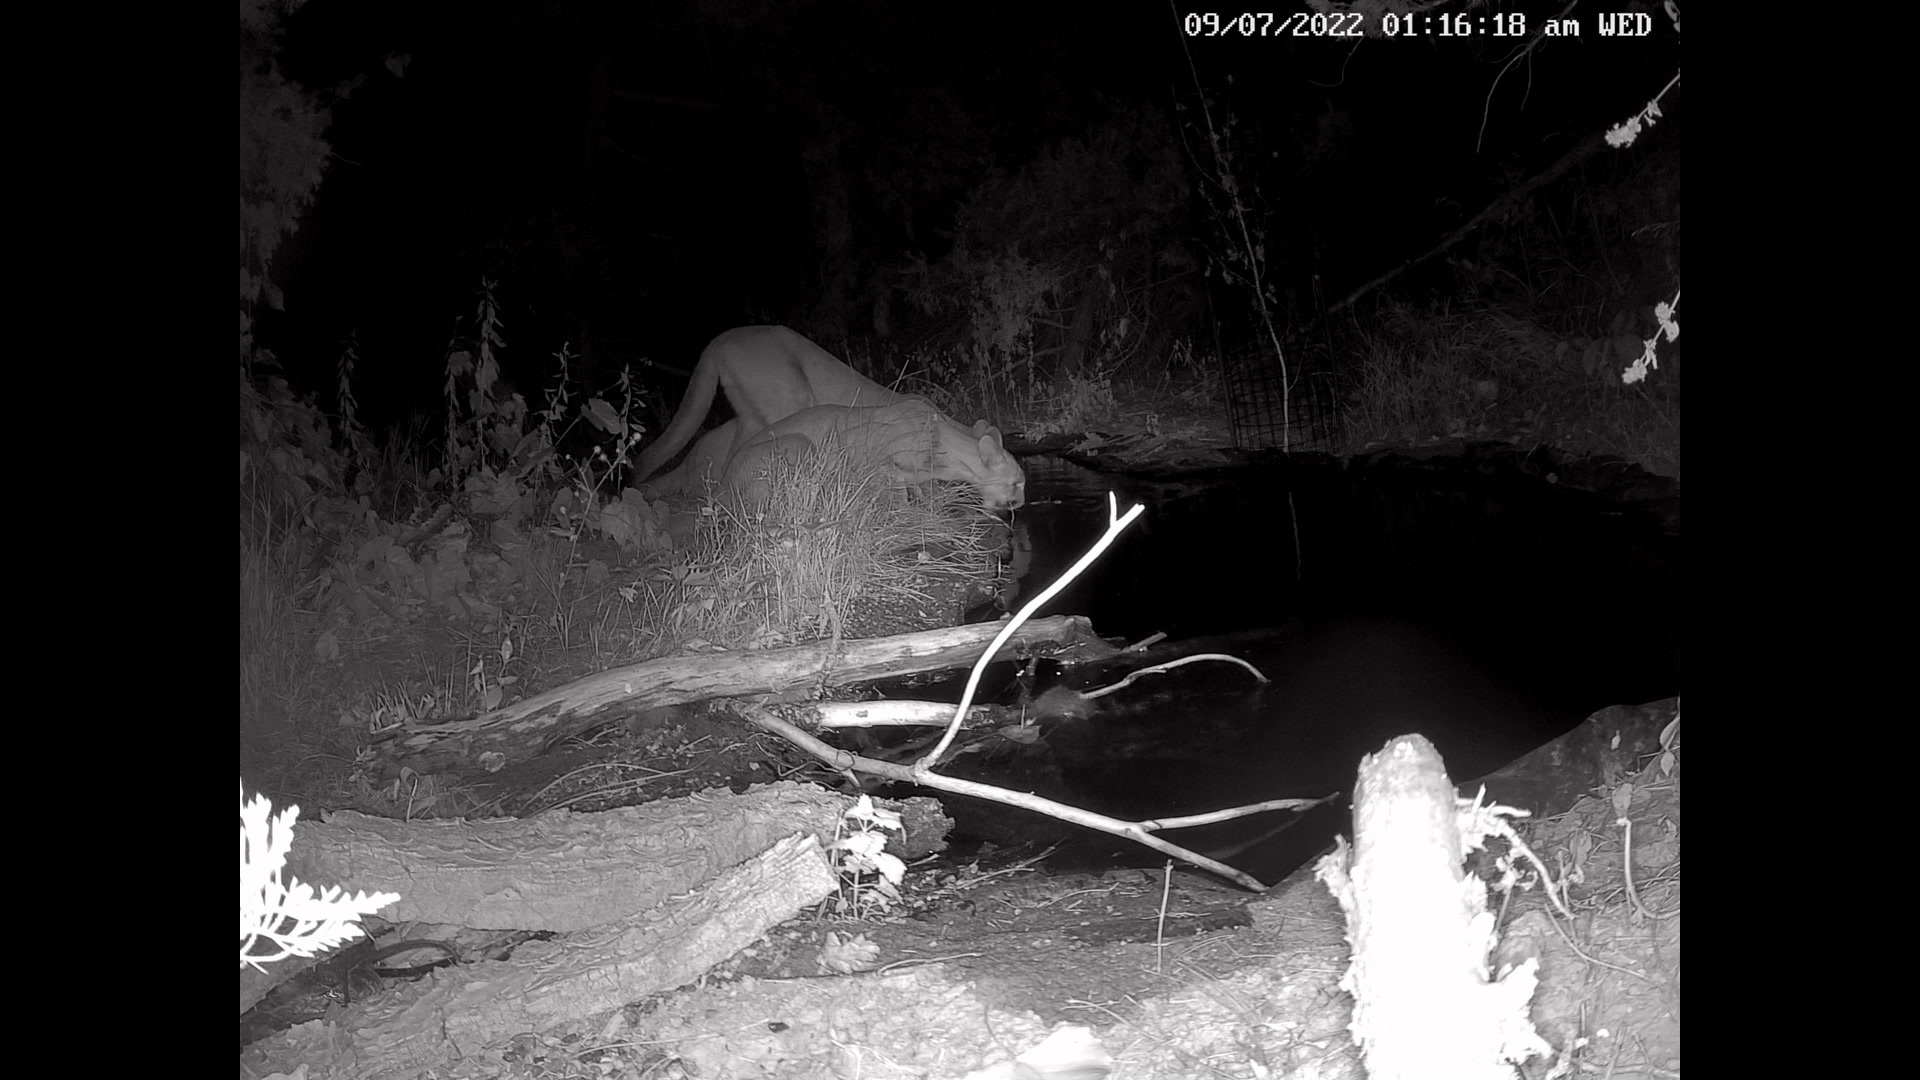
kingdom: Animalia
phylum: Chordata
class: Mammalia
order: Carnivora
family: Felidae
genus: Puma
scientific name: Puma concolor
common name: Puma
